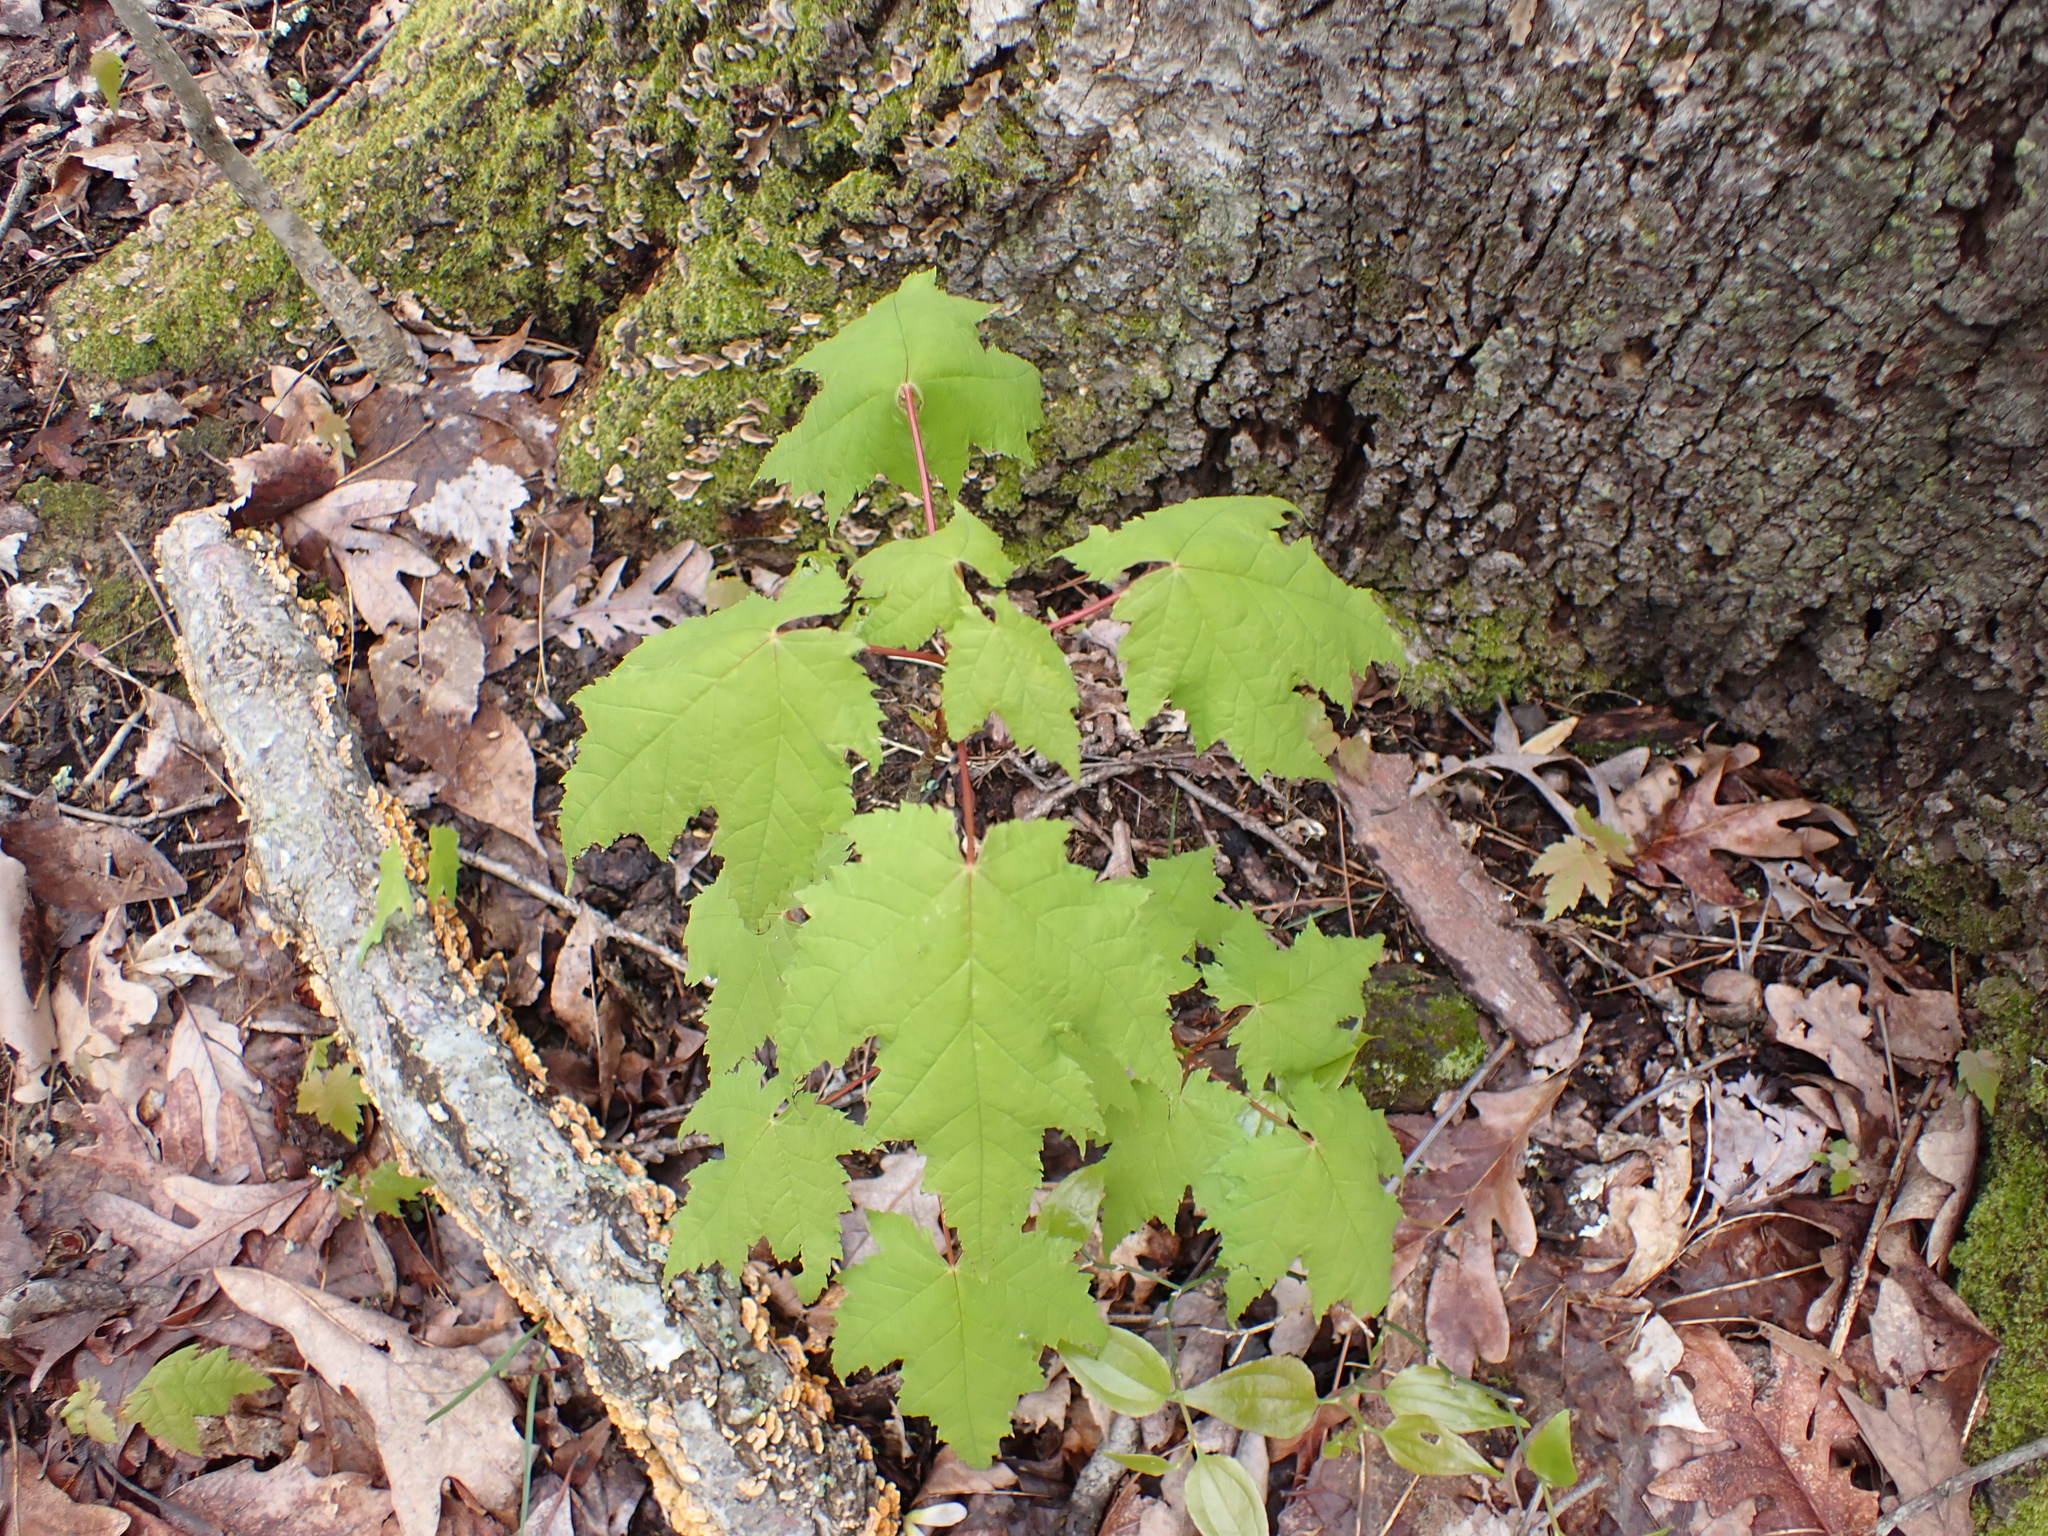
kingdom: Plantae
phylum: Tracheophyta
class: Magnoliopsida
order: Sapindales
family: Sapindaceae
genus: Acer
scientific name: Acer rubrum
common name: Red maple
